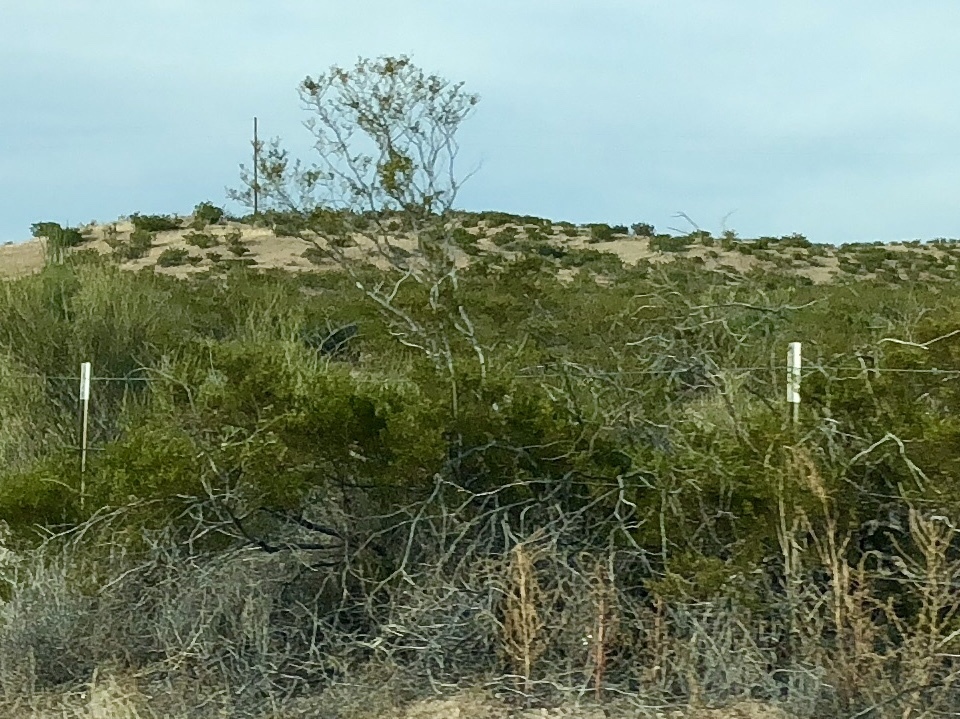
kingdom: Plantae
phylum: Tracheophyta
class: Magnoliopsida
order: Zygophyllales
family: Zygophyllaceae
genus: Larrea
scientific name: Larrea tridentata
